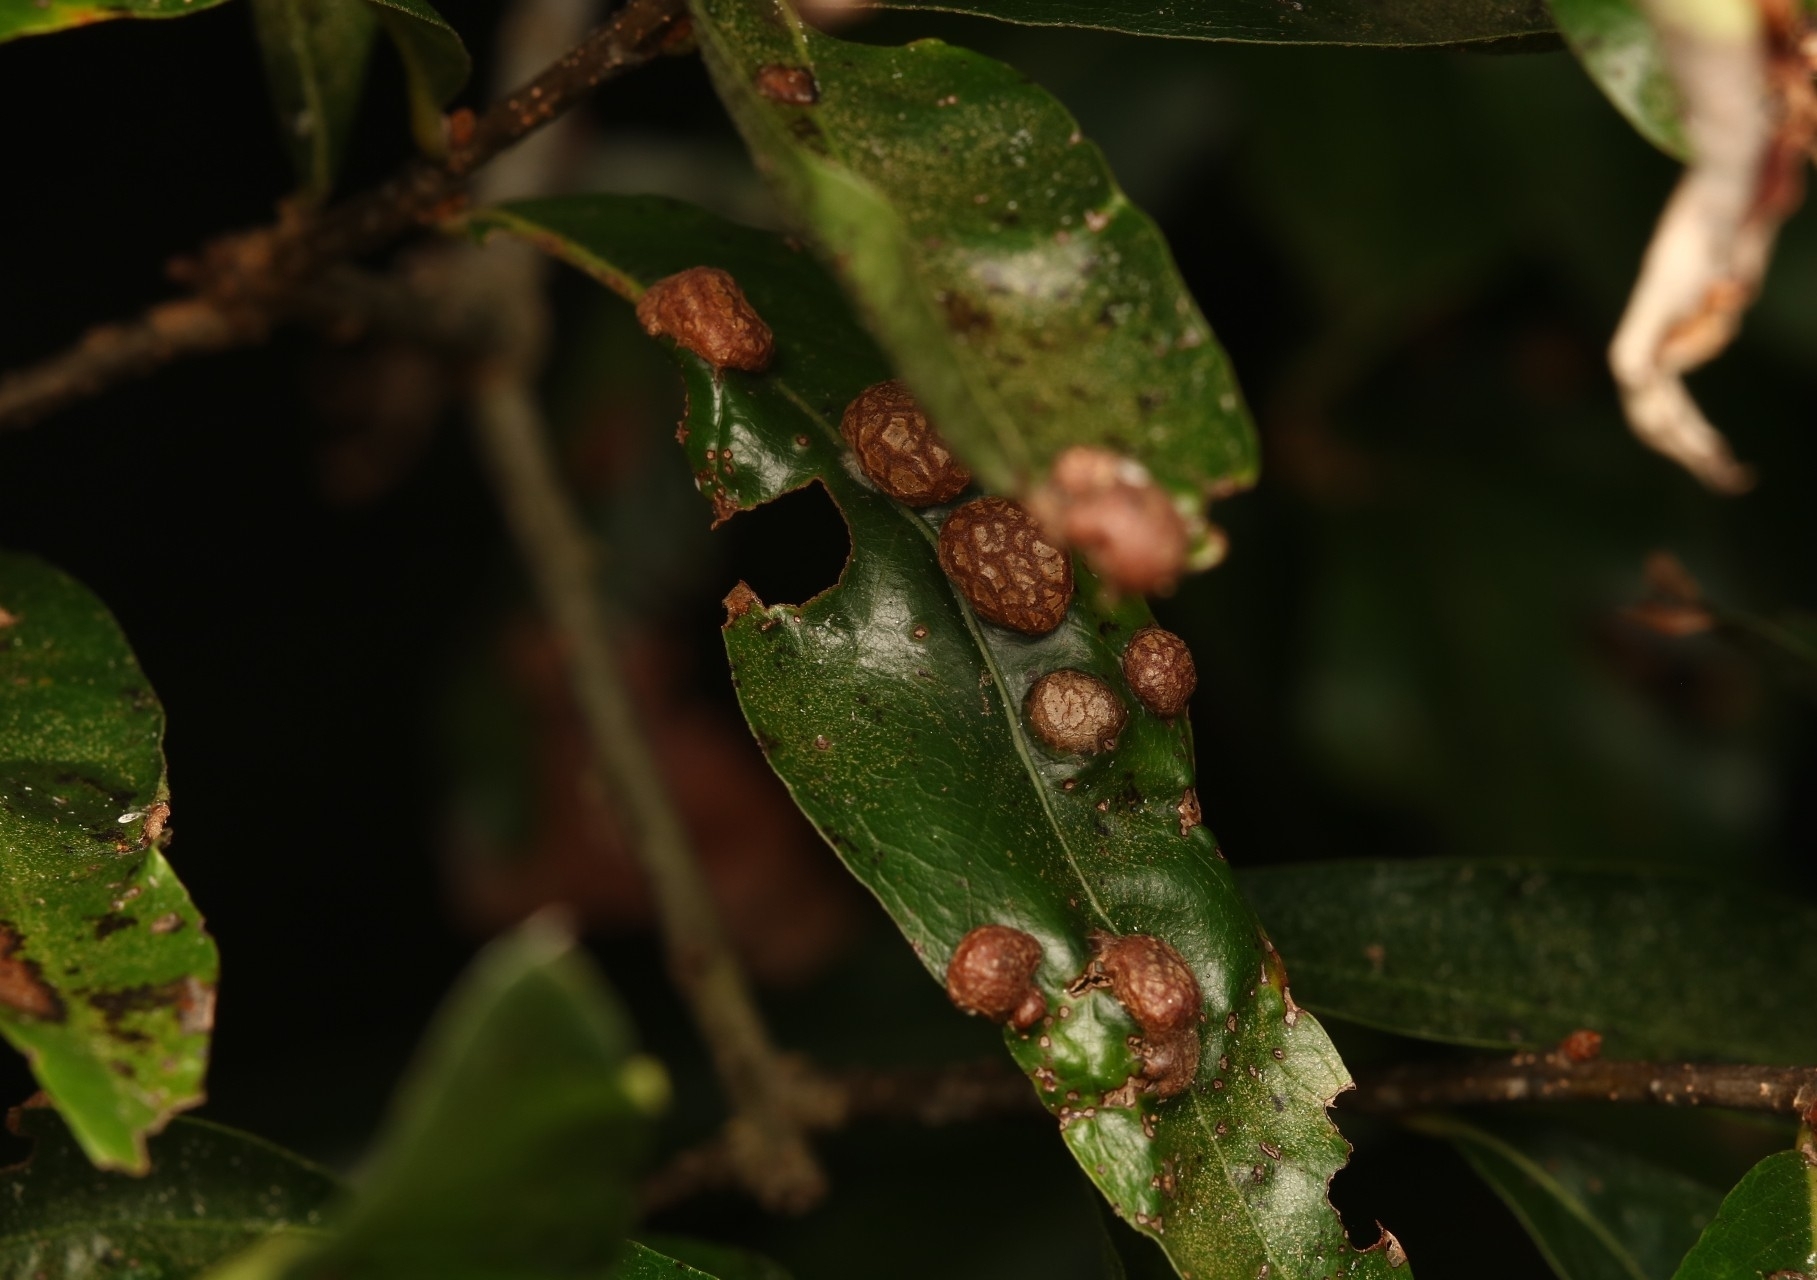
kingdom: Animalia
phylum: Arthropoda
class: Insecta
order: Diptera
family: Cecidomyiidae
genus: Polystepha
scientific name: Polystepha pilulae
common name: Oak leaf gall midge
